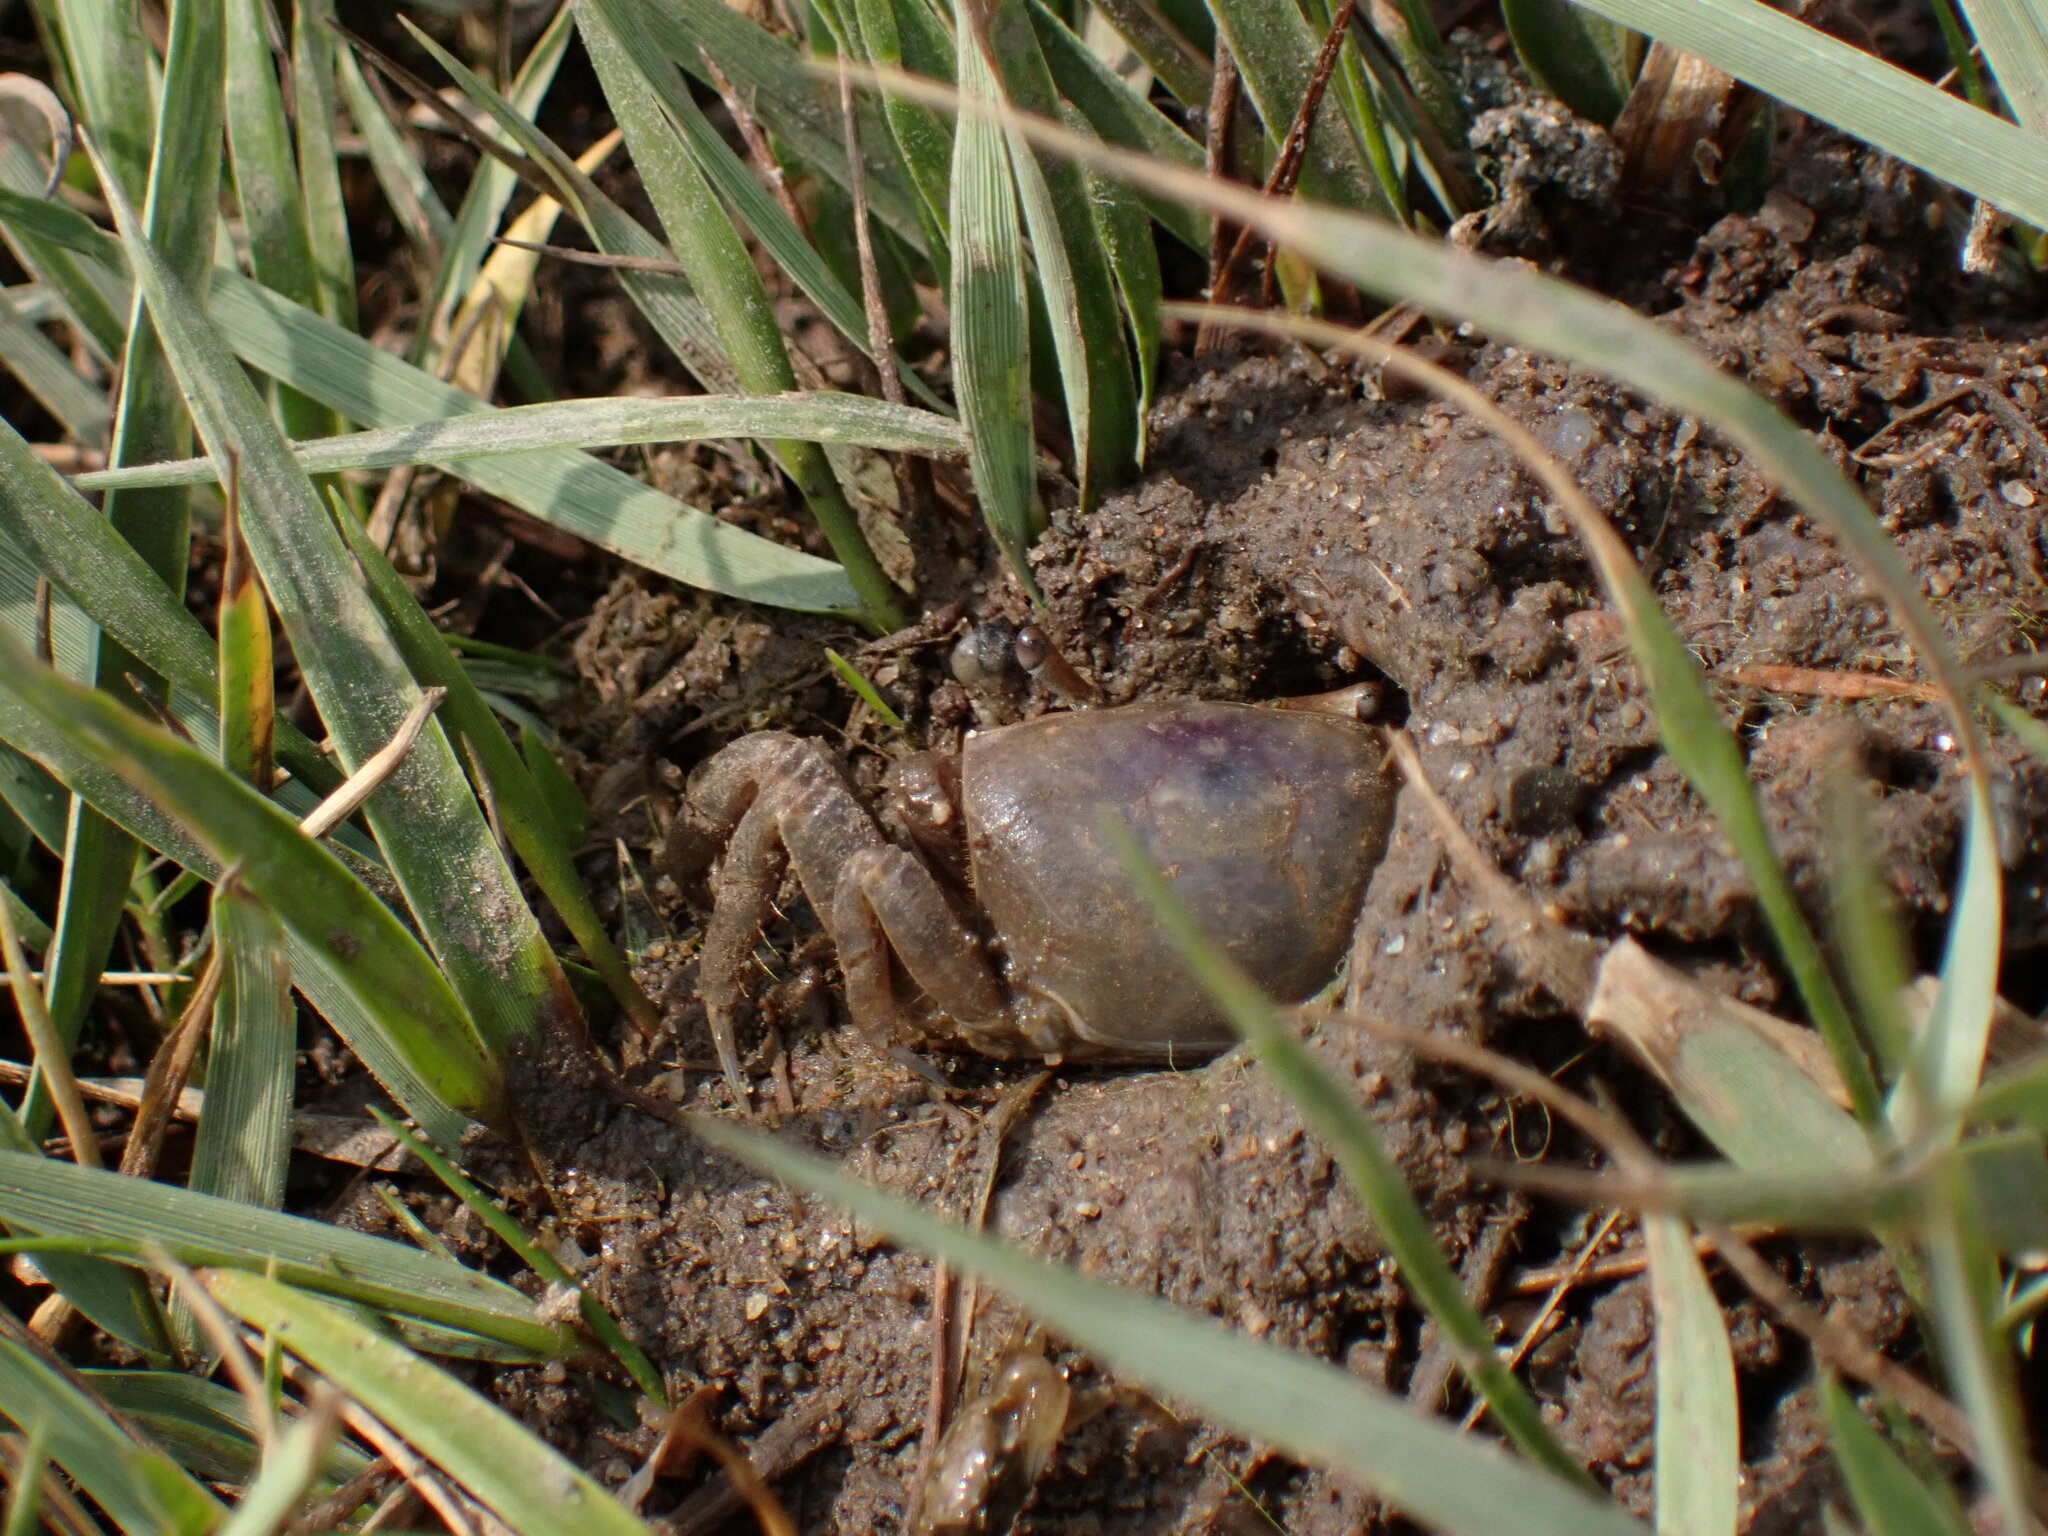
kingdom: Animalia
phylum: Arthropoda
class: Malacostraca
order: Decapoda
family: Ocypodidae
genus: Leptuca
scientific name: Leptuca pugilator
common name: Atlantic sand fiddler crab
